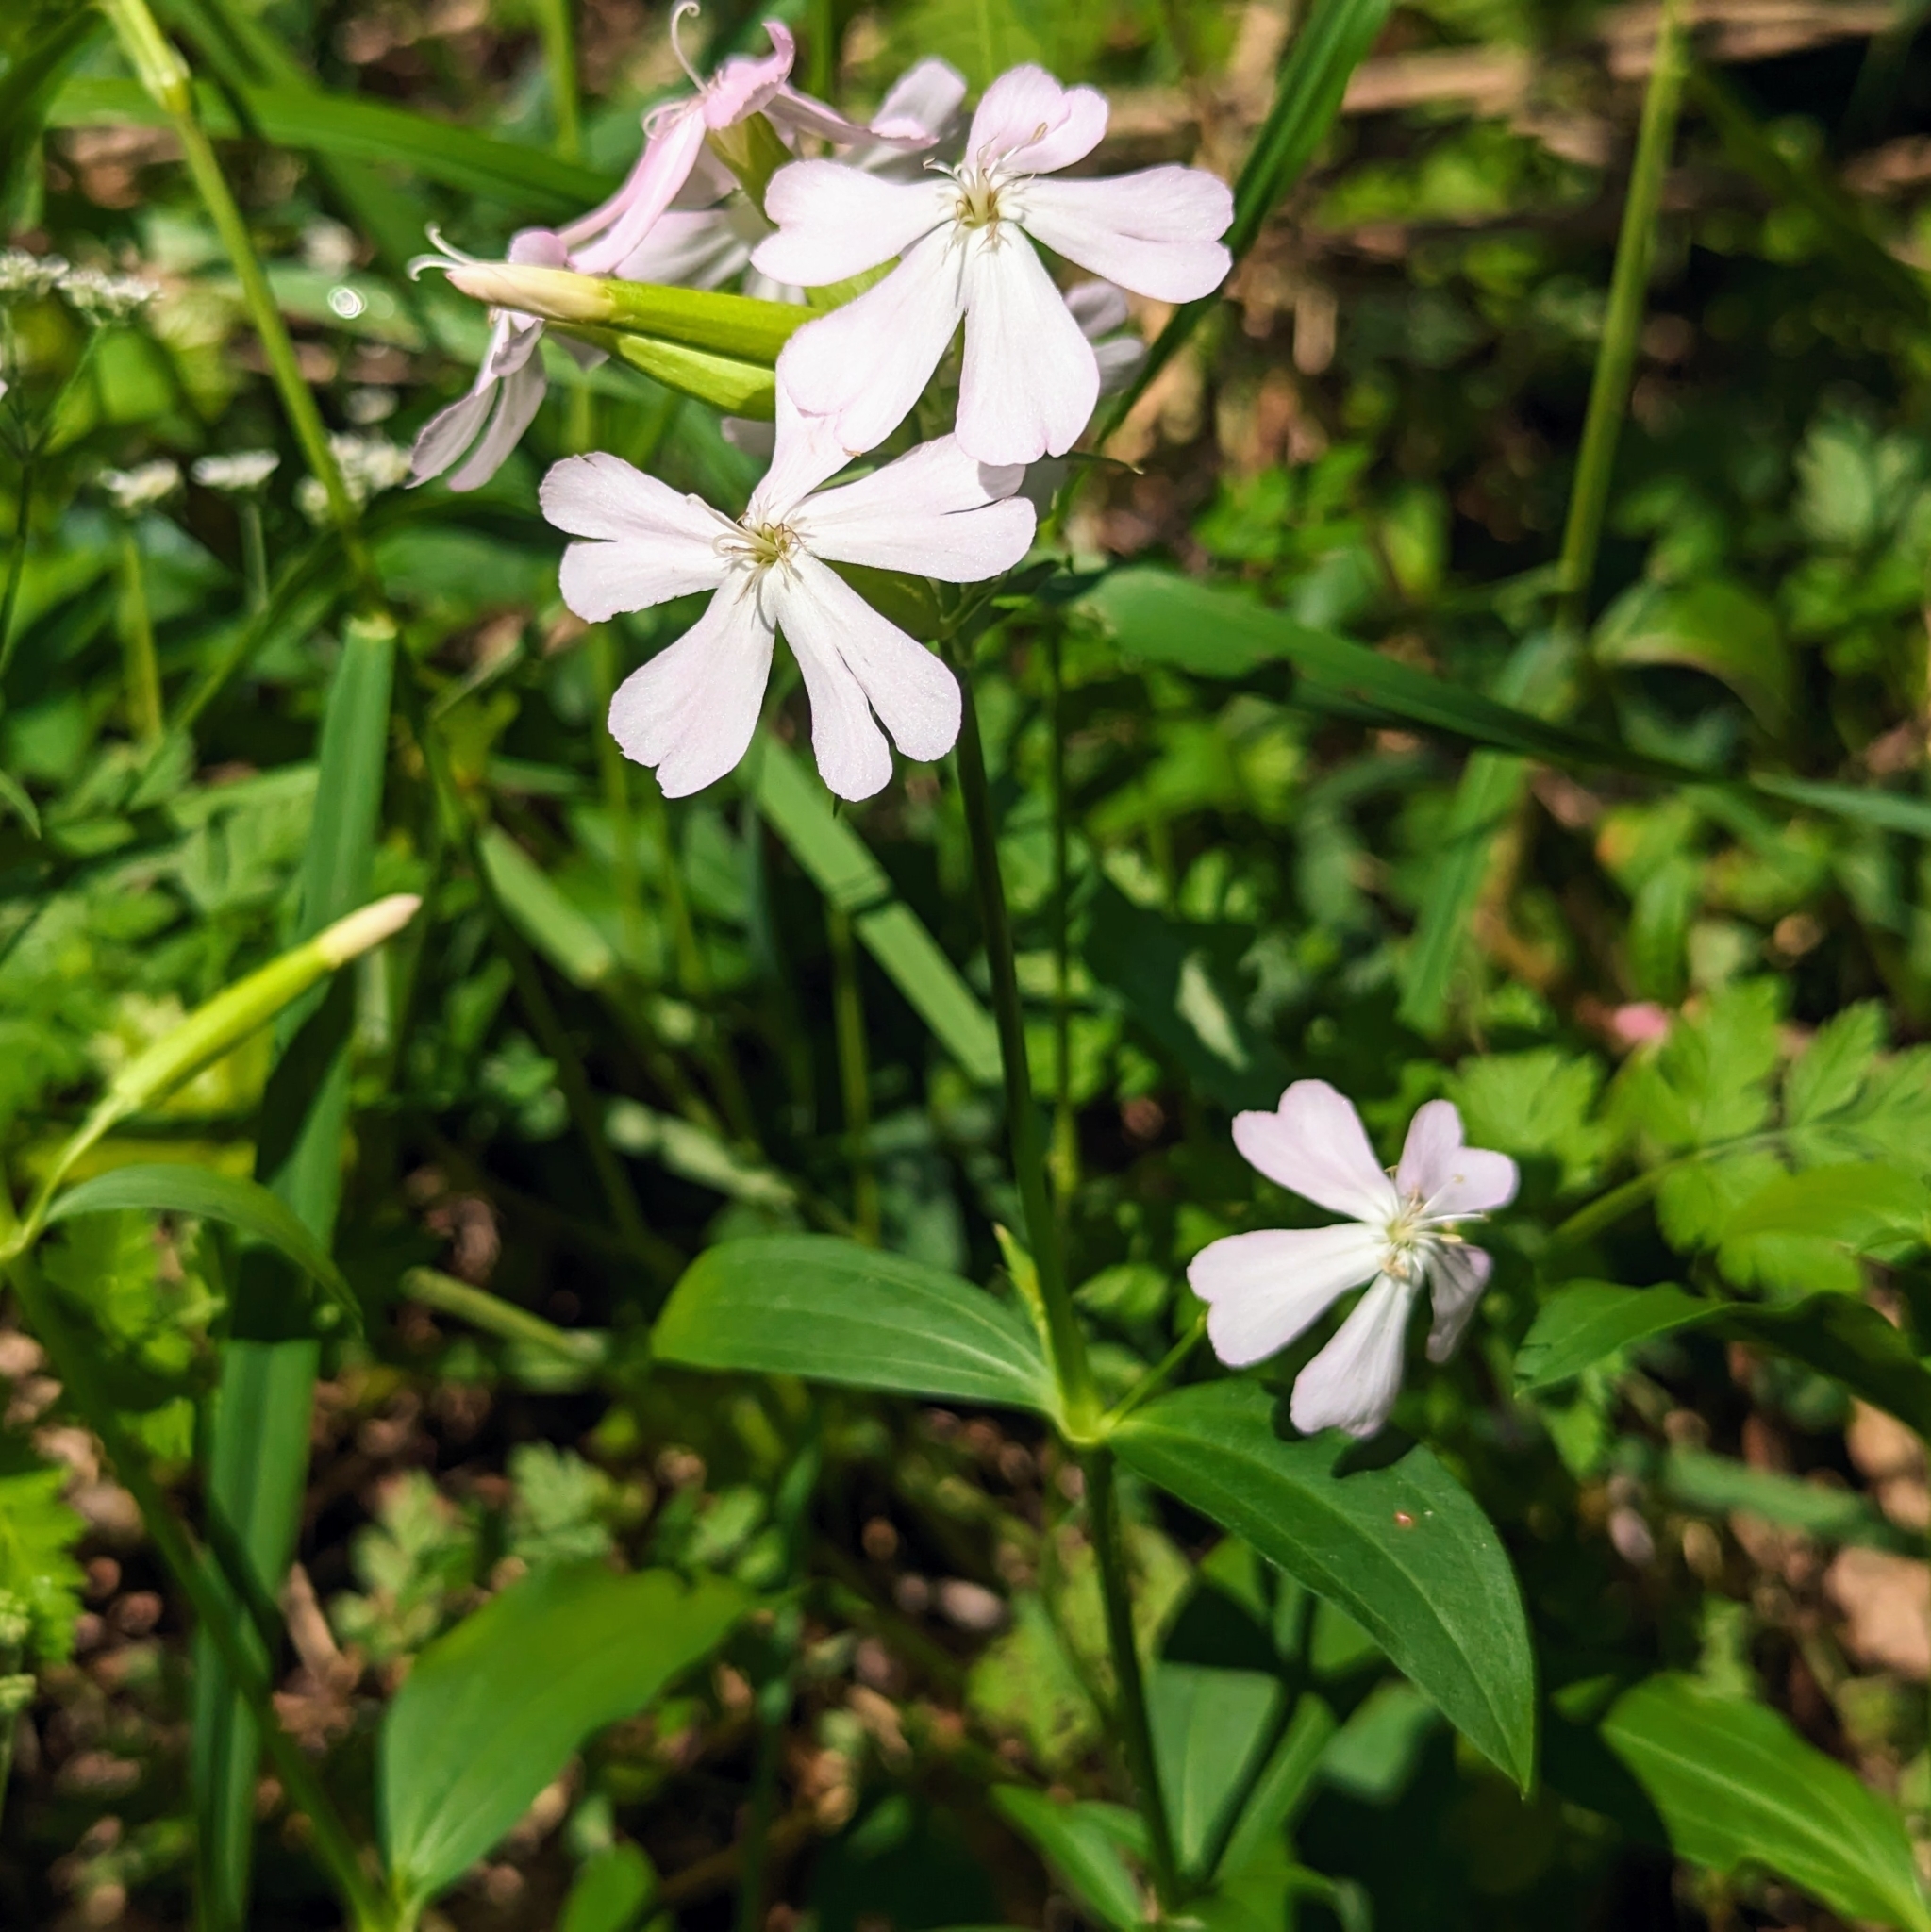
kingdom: Plantae
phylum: Tracheophyta
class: Magnoliopsida
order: Caryophyllales
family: Caryophyllaceae
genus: Saponaria
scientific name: Saponaria officinalis
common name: Soapwort
